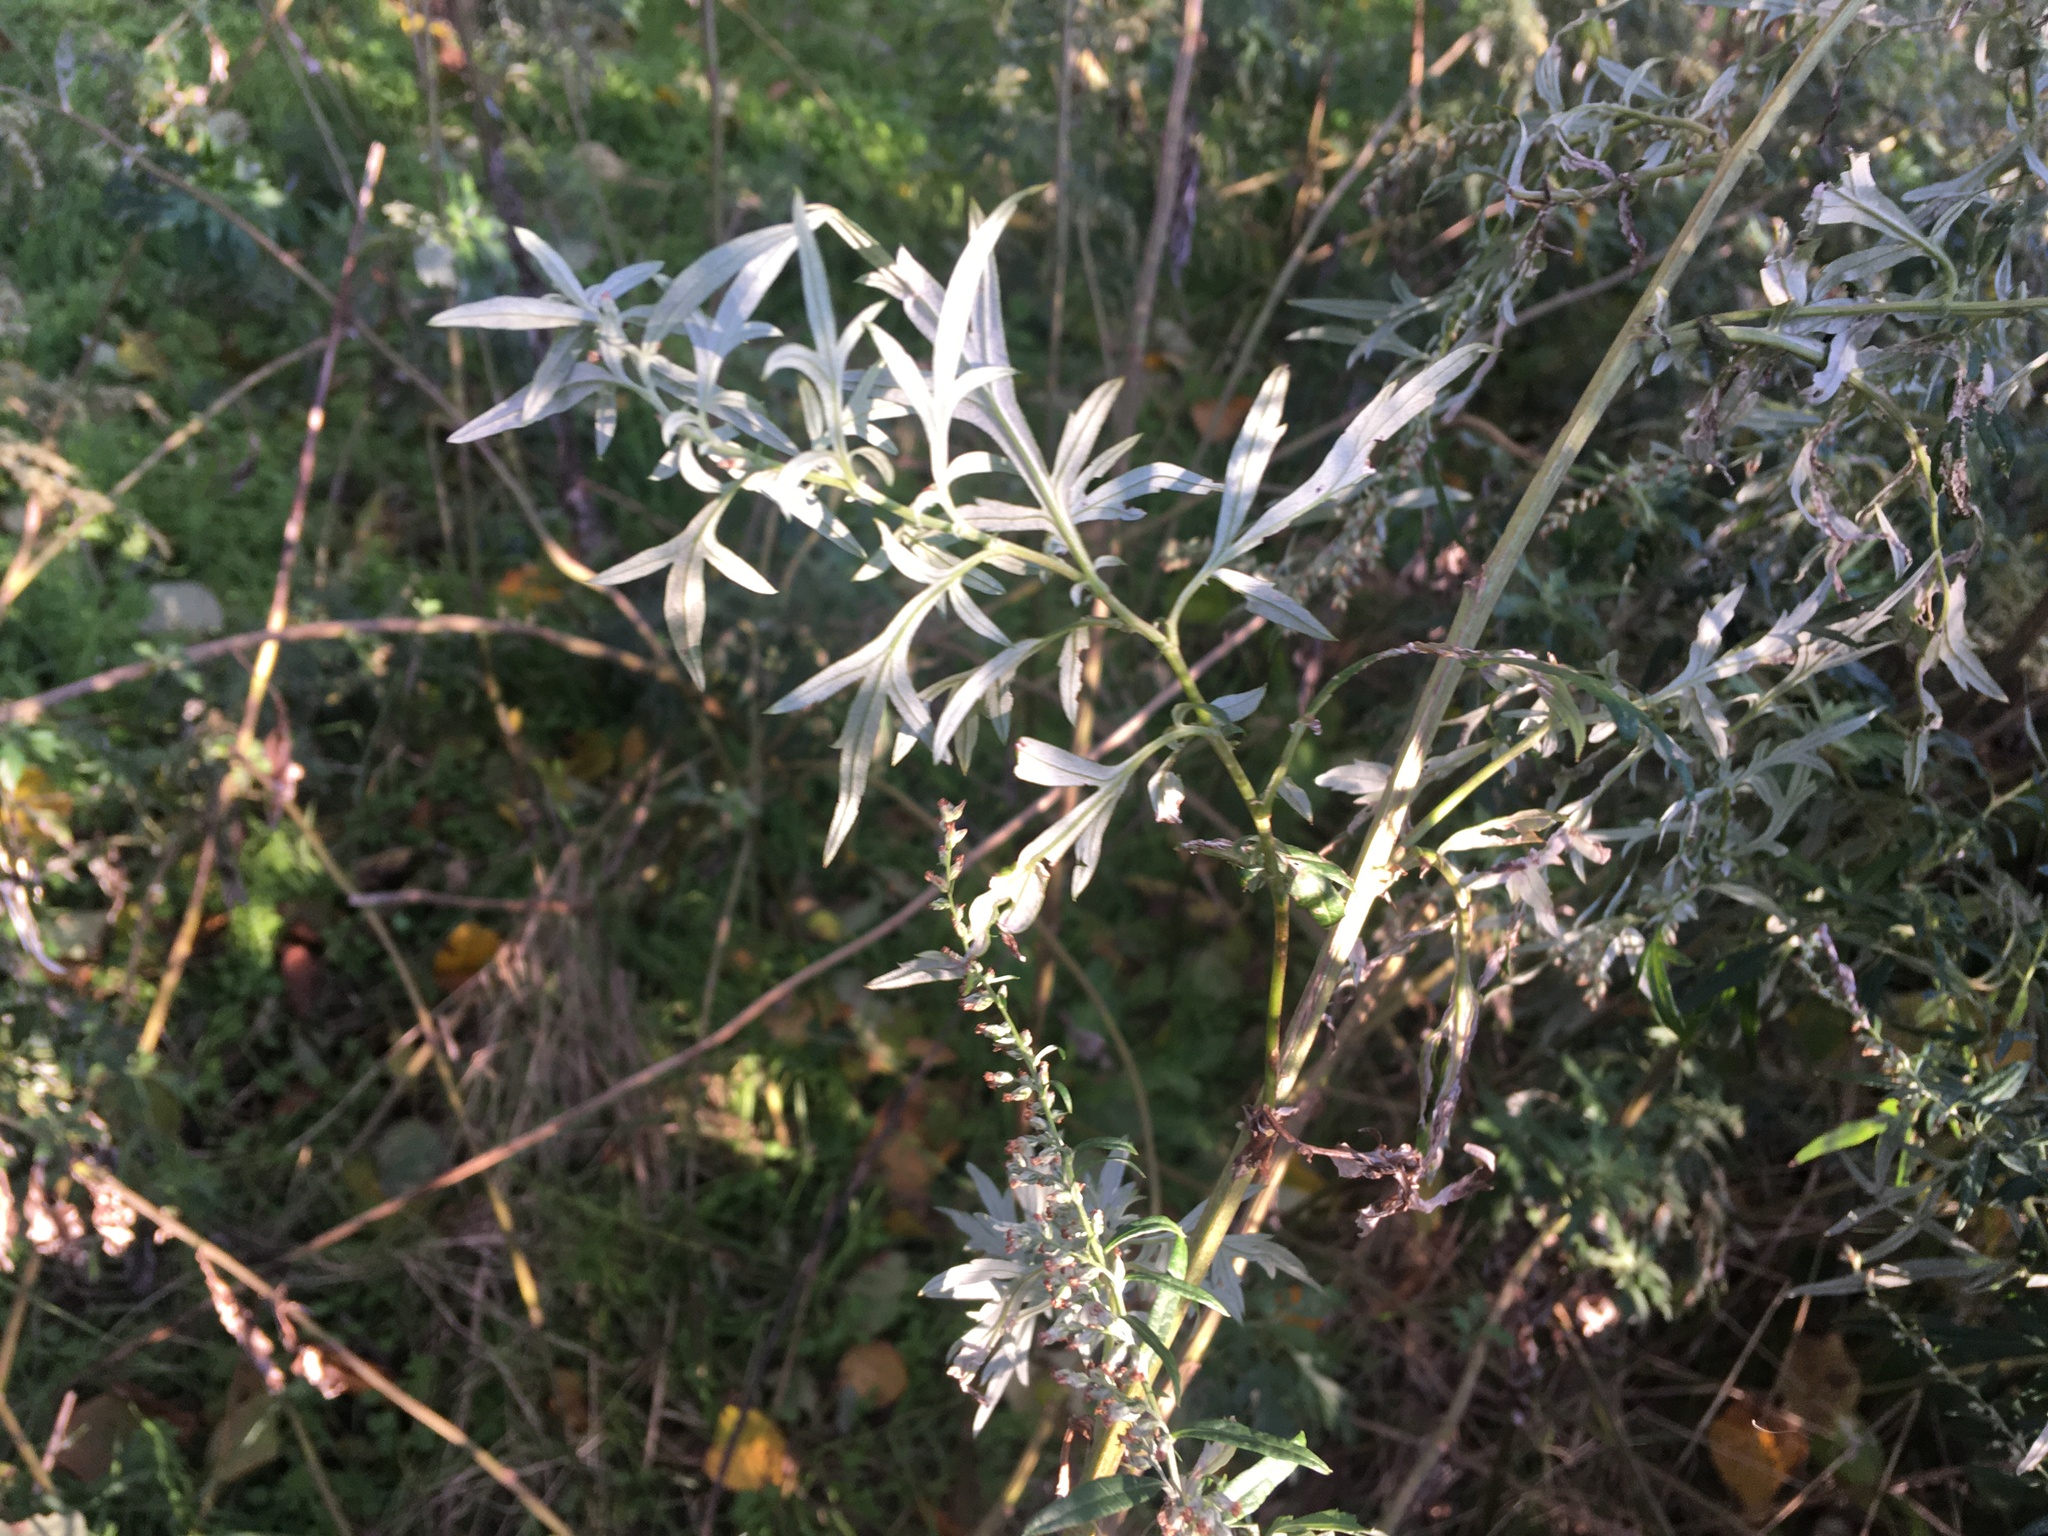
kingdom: Plantae
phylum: Tracheophyta
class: Magnoliopsida
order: Asterales
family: Asteraceae
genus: Artemisia
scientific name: Artemisia vulgaris
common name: Mugwort
